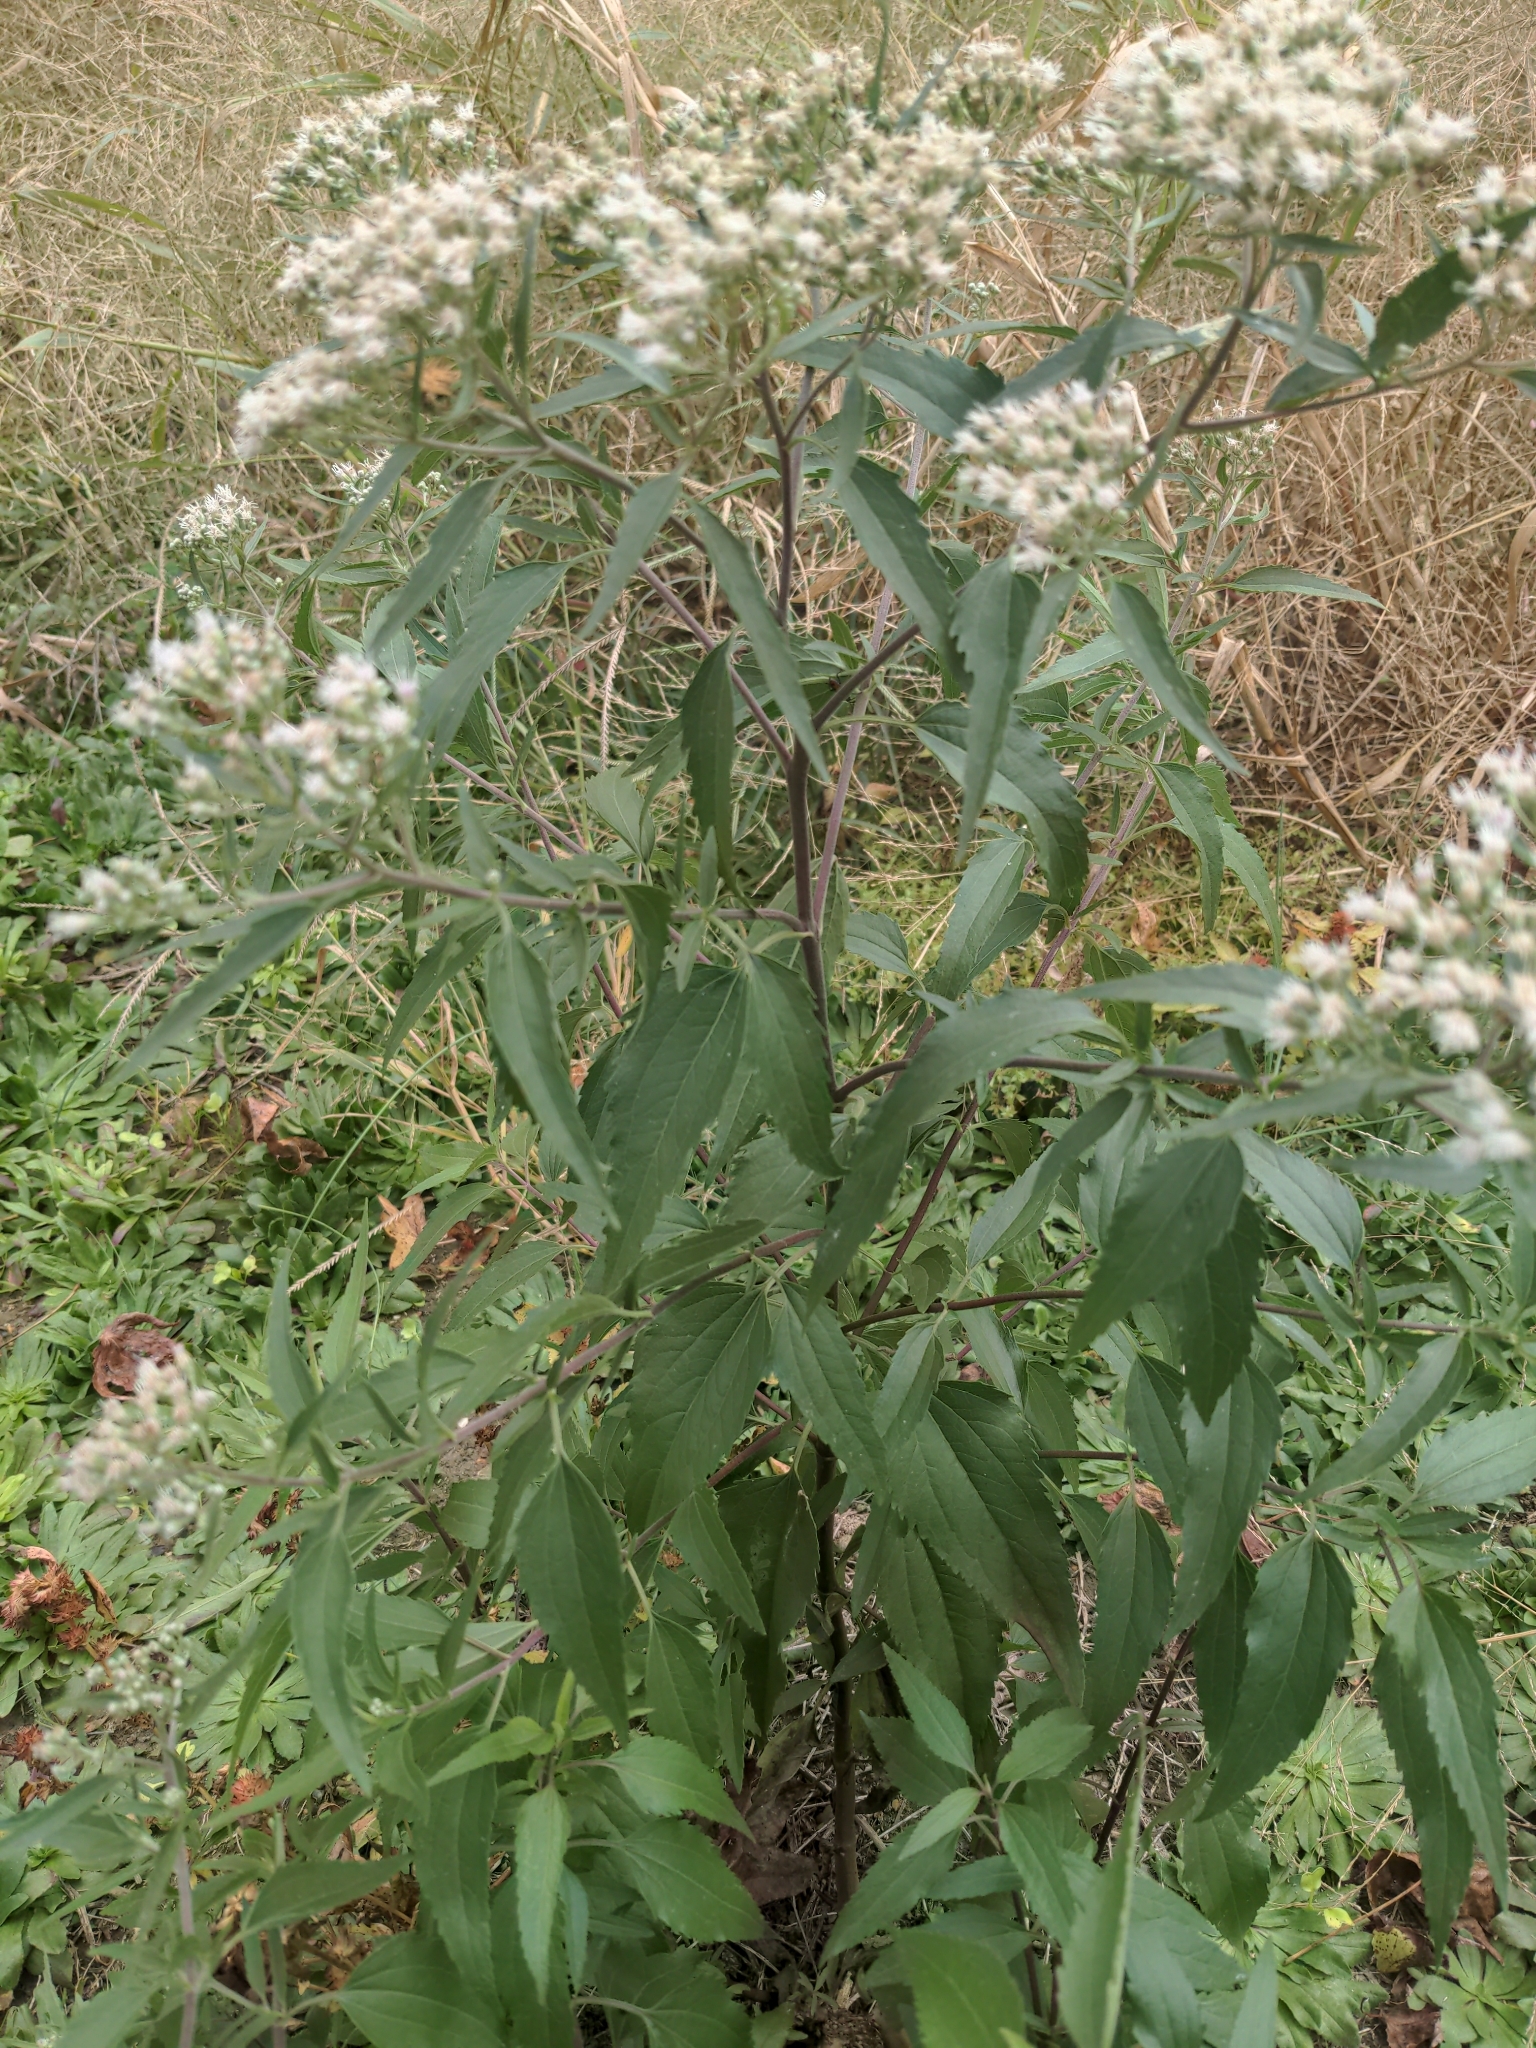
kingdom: Plantae
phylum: Tracheophyta
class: Magnoliopsida
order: Asterales
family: Asteraceae
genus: Eupatorium
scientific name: Eupatorium serotinum
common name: Late boneset
